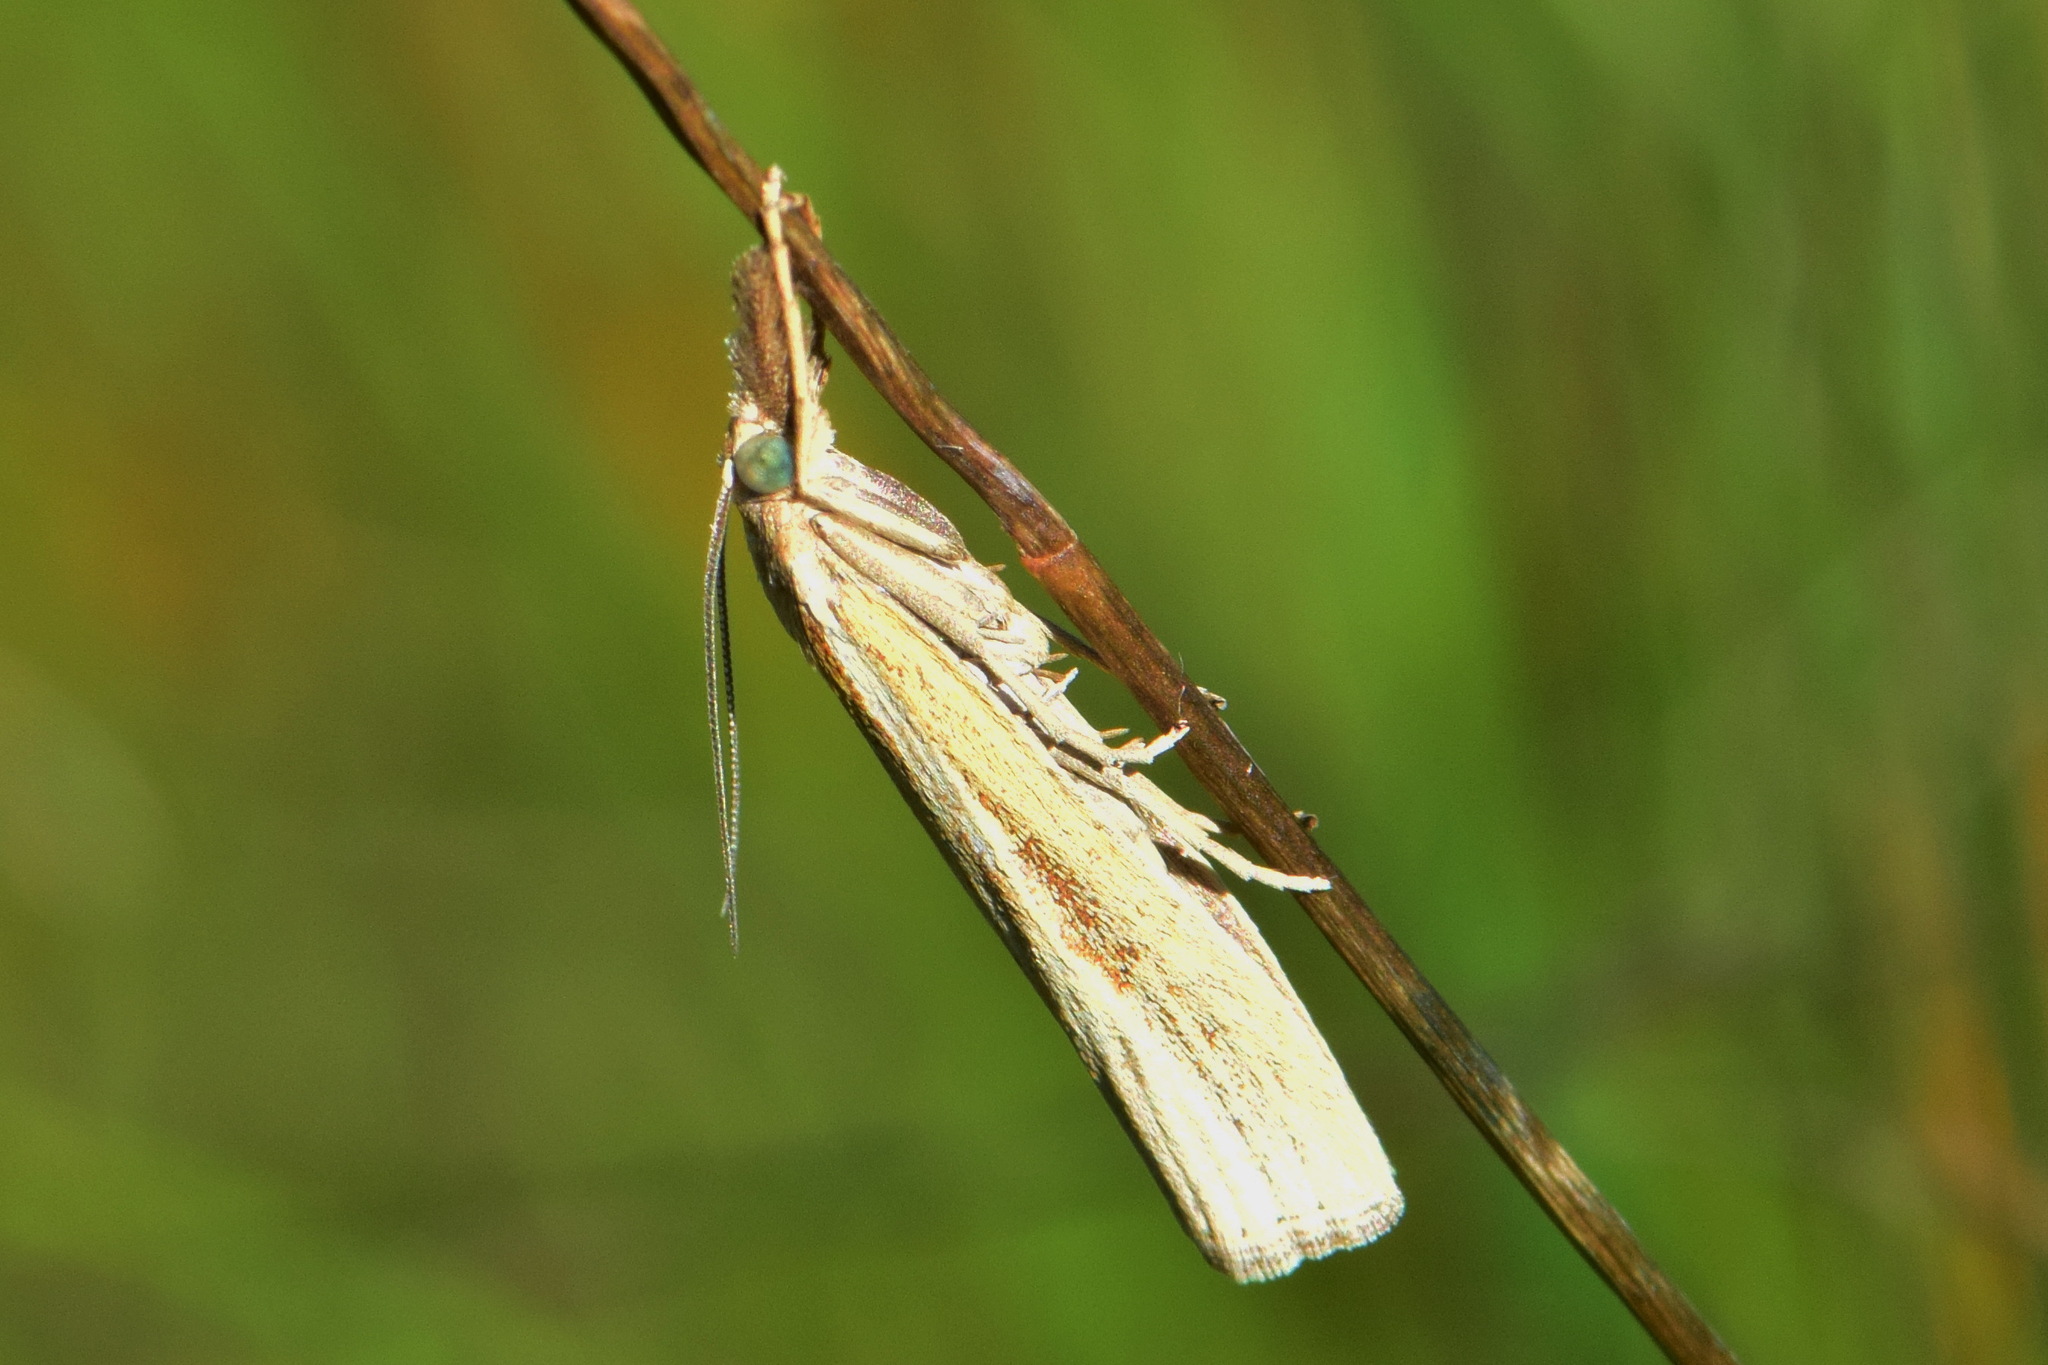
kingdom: Animalia
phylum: Arthropoda
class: Insecta
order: Lepidoptera
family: Crambidae
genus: Agriphila
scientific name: Agriphila tristellus
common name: Common grass-veneer
